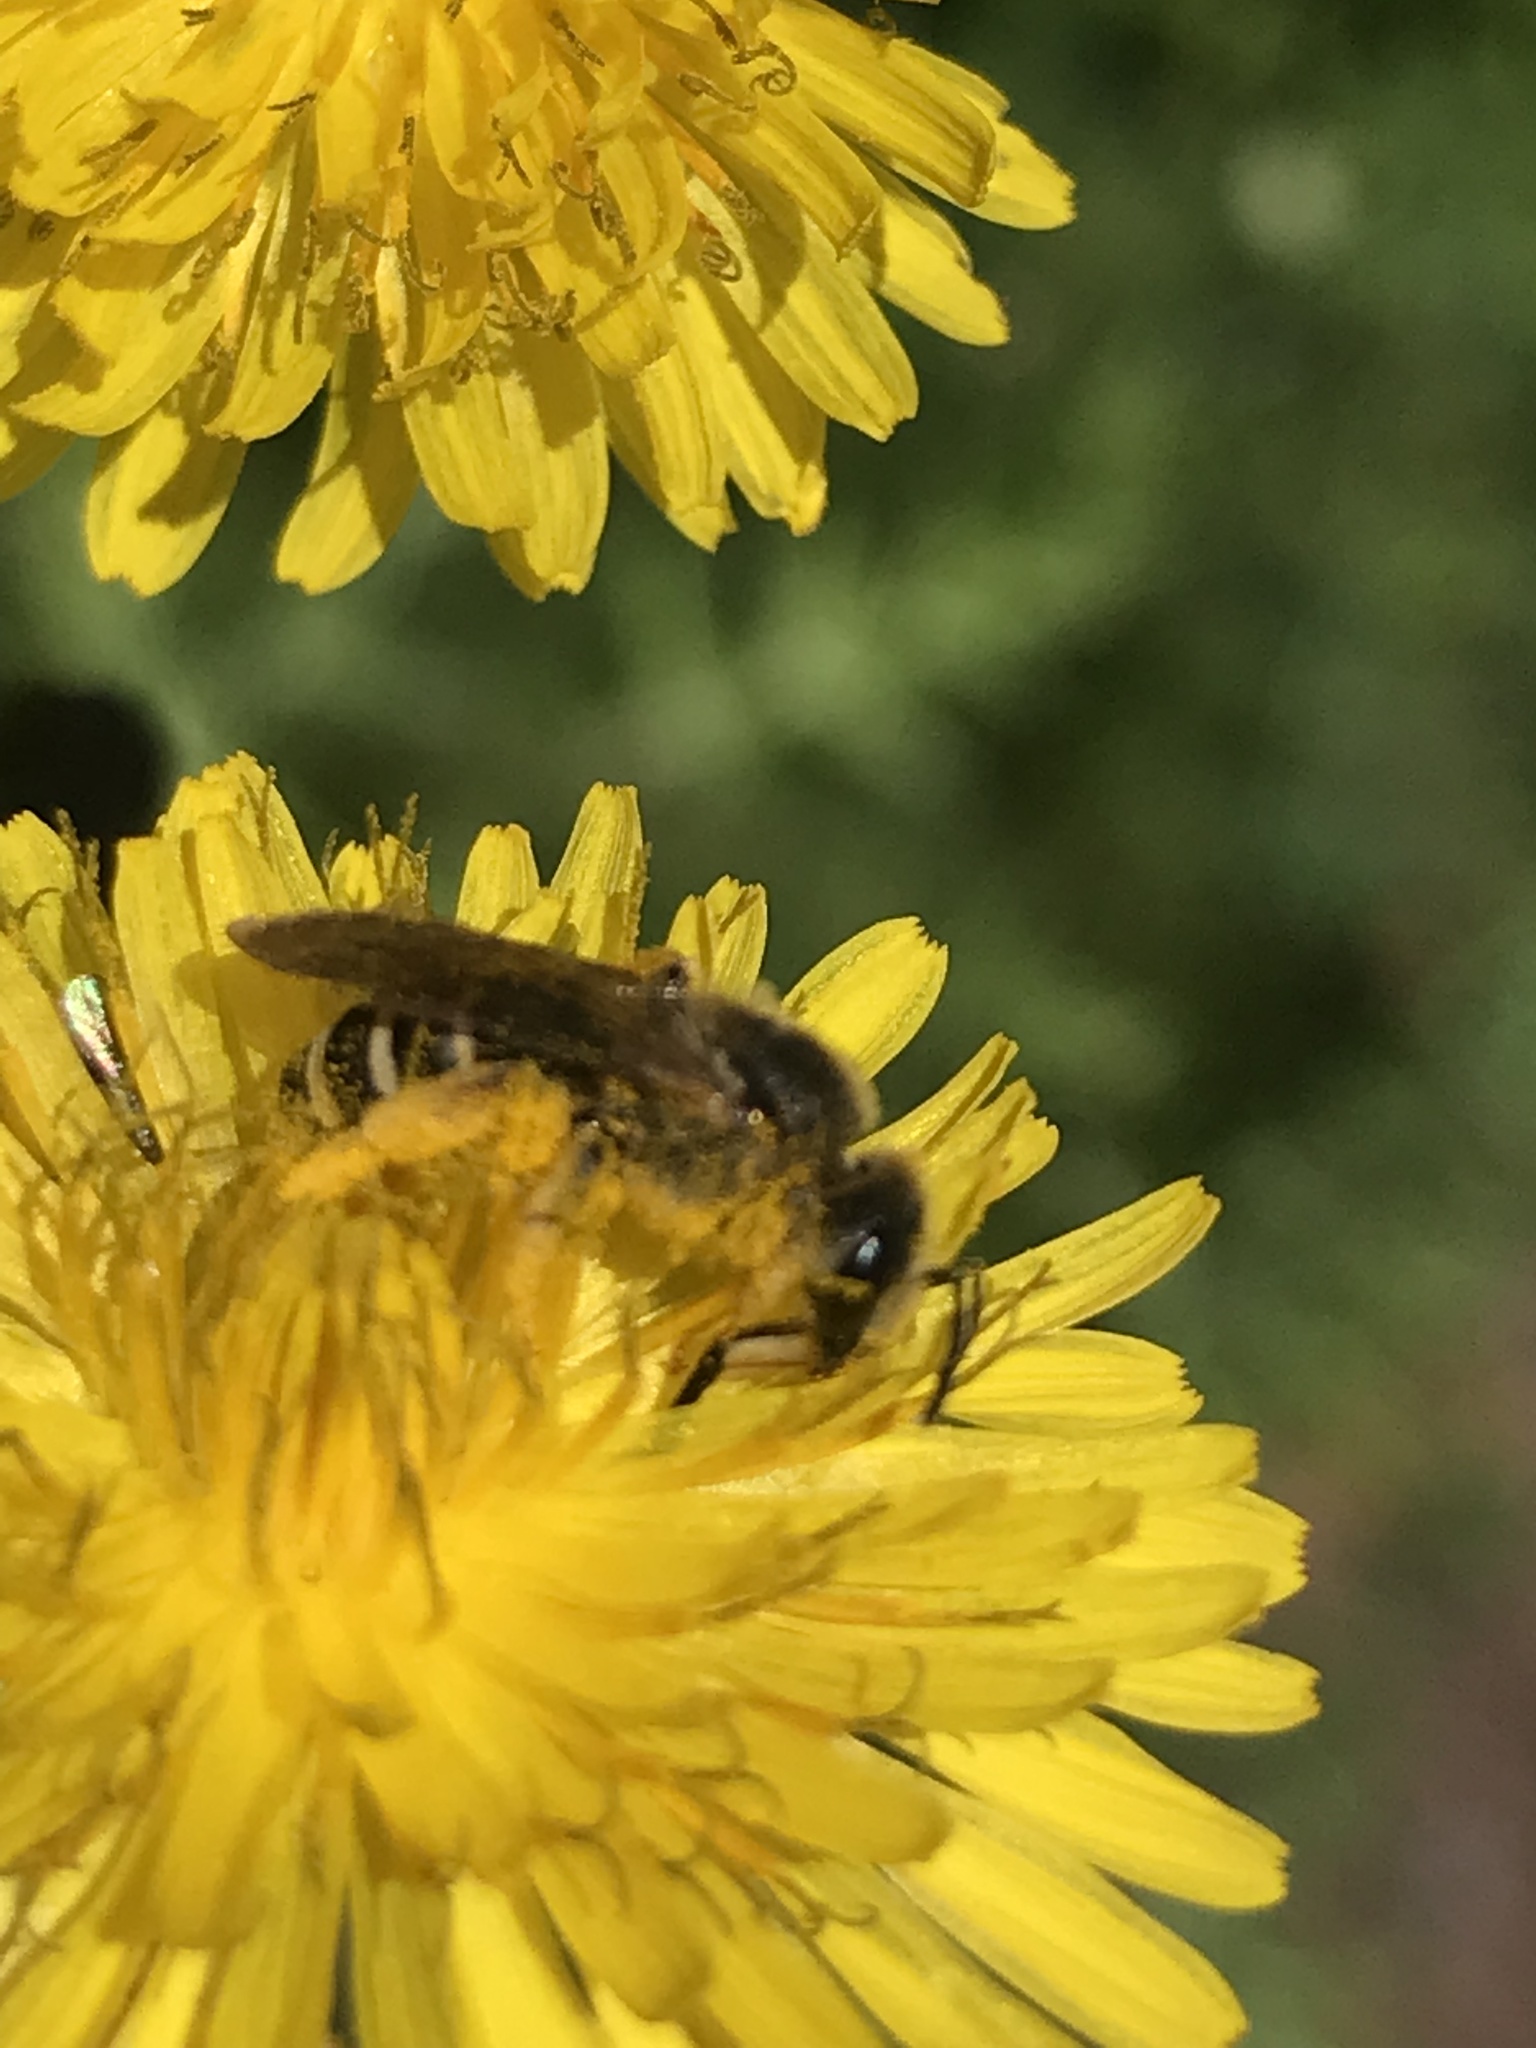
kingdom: Animalia
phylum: Arthropoda
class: Insecta
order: Hymenoptera
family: Halictidae
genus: Halictus
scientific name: Halictus fulvipes
